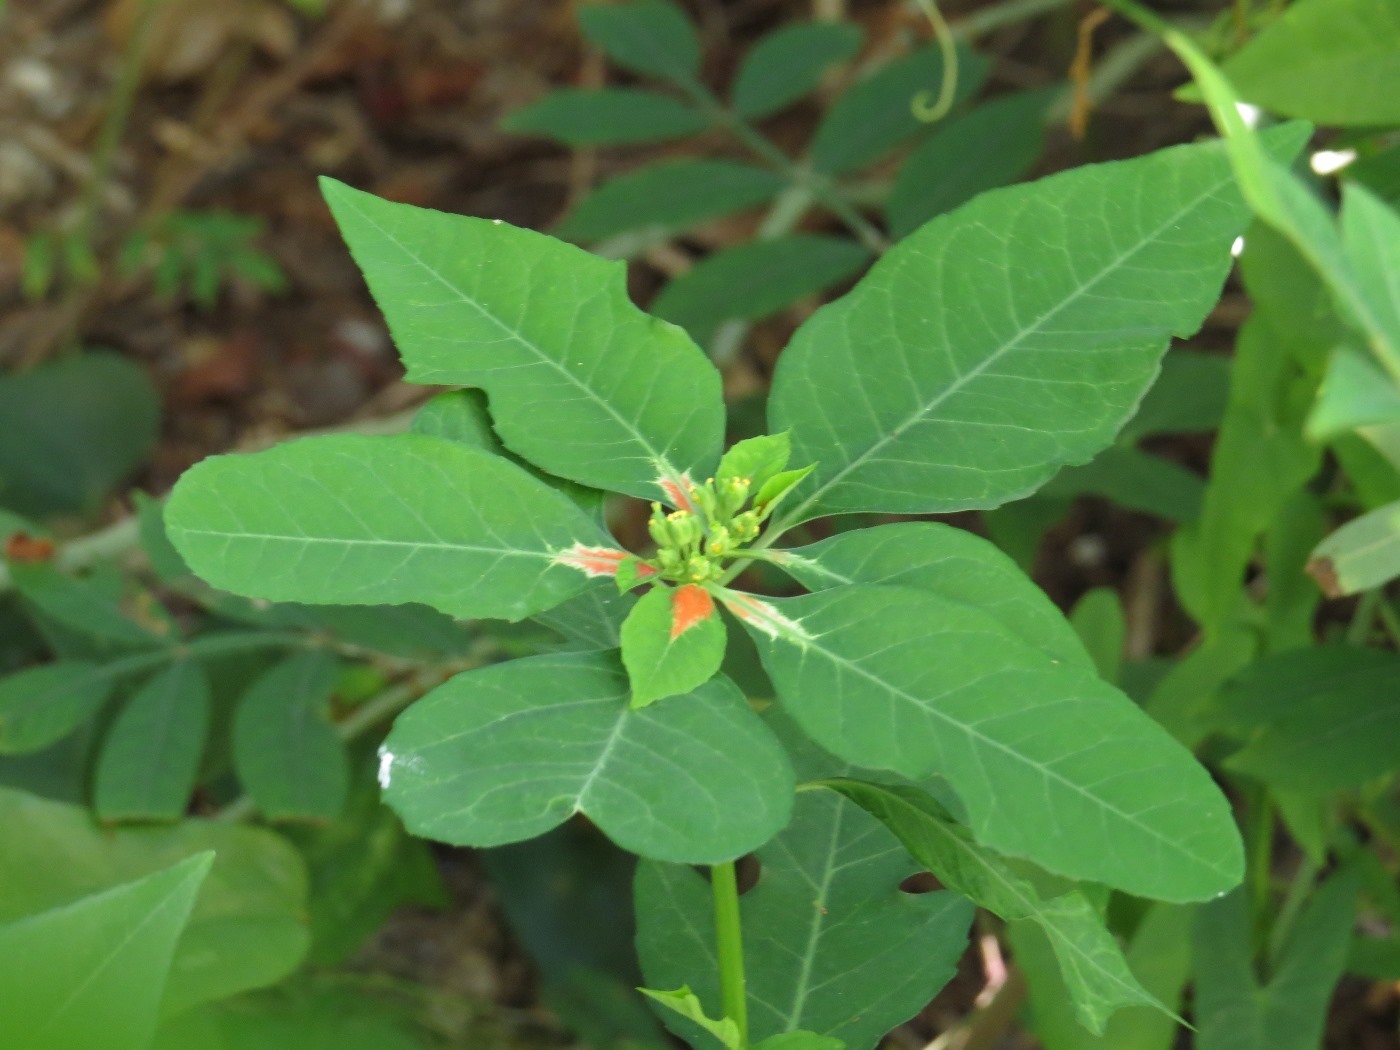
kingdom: Plantae
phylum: Tracheophyta
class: Magnoliopsida
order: Malpighiales
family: Euphorbiaceae
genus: Euphorbia
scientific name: Euphorbia heterophylla
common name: Mexican fireplant
